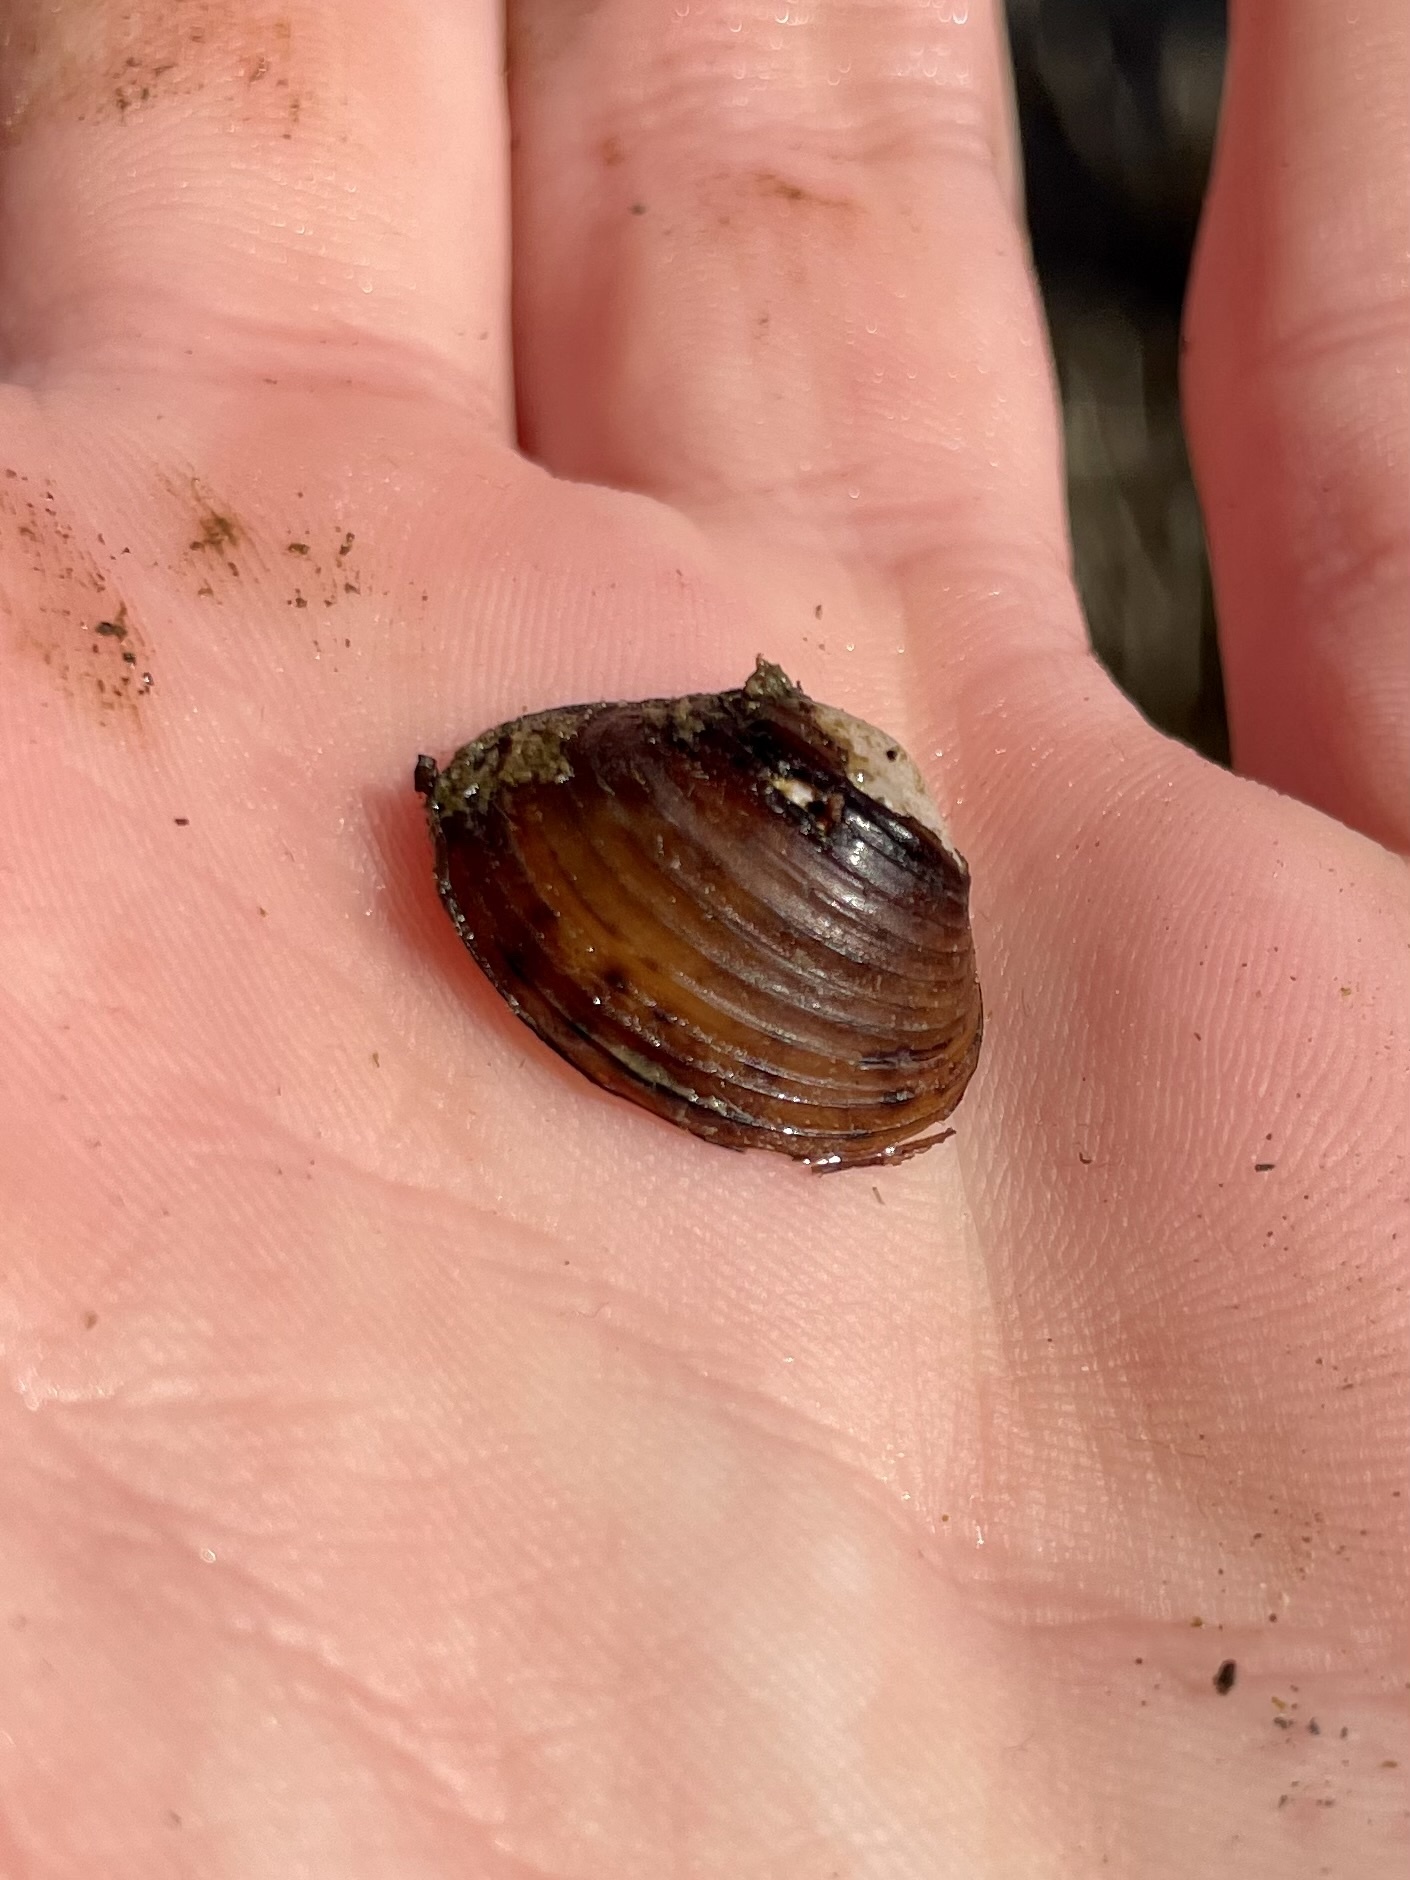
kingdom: Animalia
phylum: Mollusca
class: Bivalvia
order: Venerida
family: Cyrenidae
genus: Corbicula
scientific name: Corbicula fluminea
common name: Asian clam
